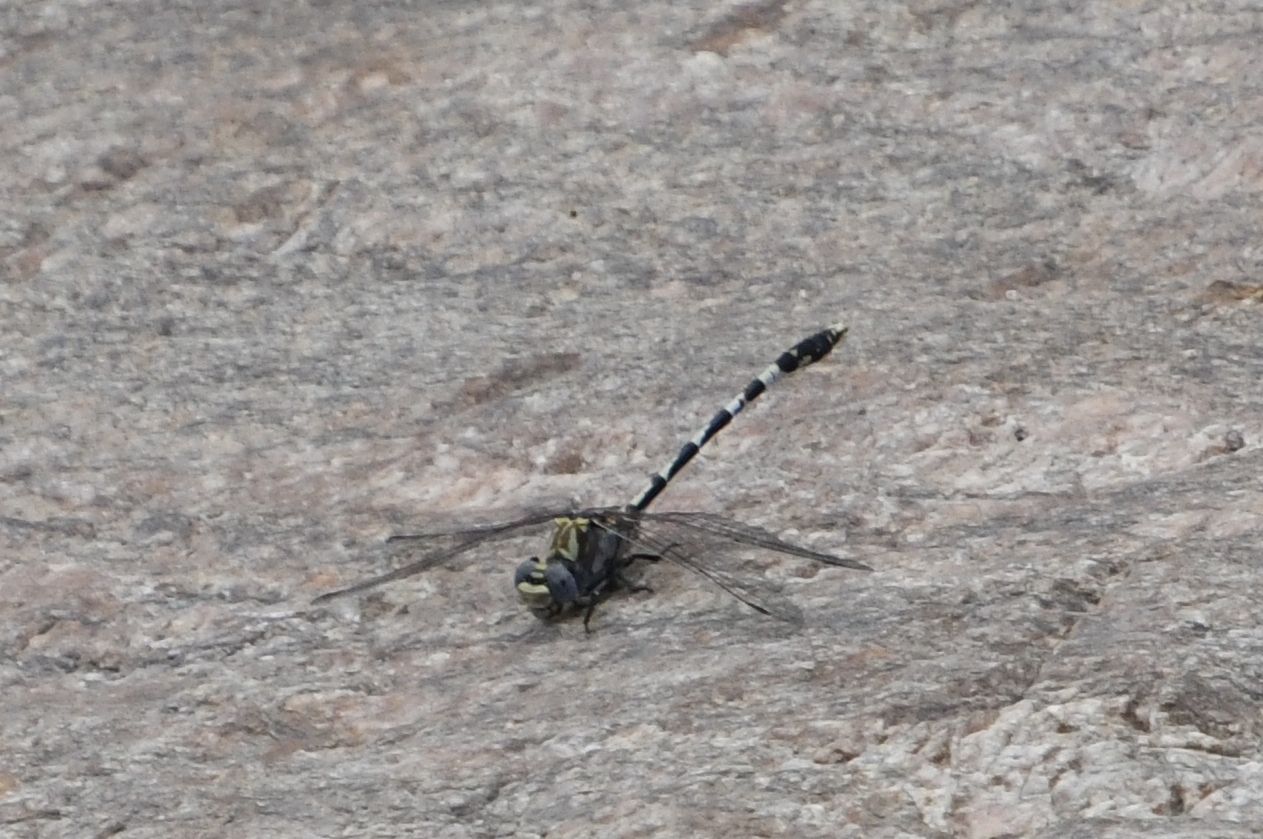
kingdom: Animalia
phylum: Arthropoda
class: Insecta
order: Odonata
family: Gomphidae
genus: Progomphus
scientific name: Progomphus borealis
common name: Gray sanddragon
